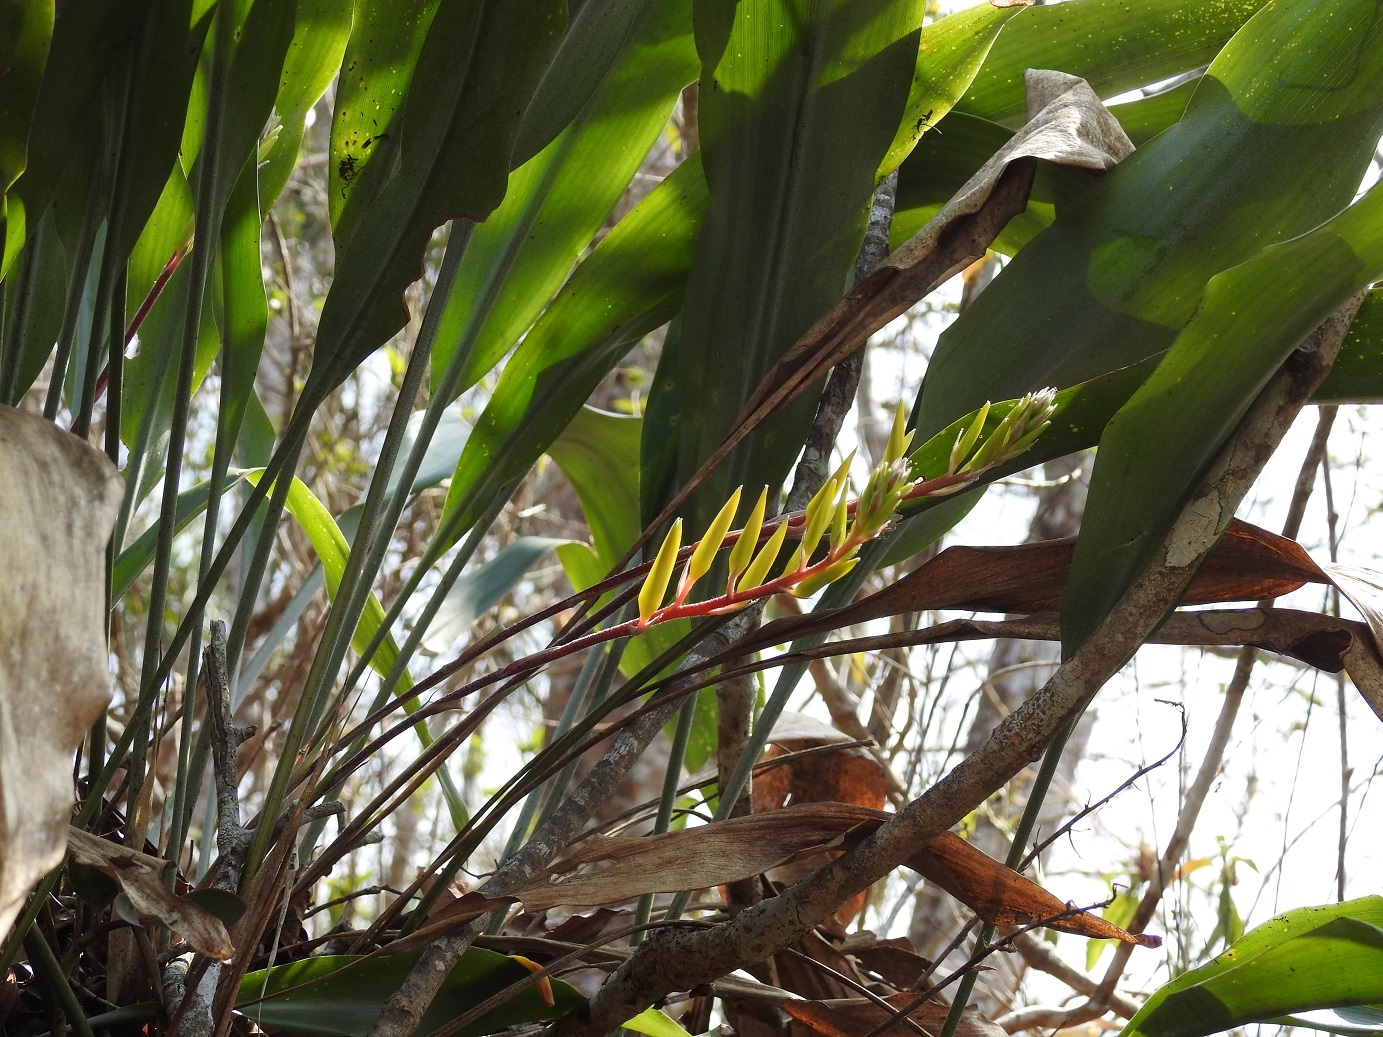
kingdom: Plantae
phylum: Tracheophyta
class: Liliopsida
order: Poales
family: Bromeliaceae
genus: Pitcairnia
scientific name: Pitcairnia chiapensis
